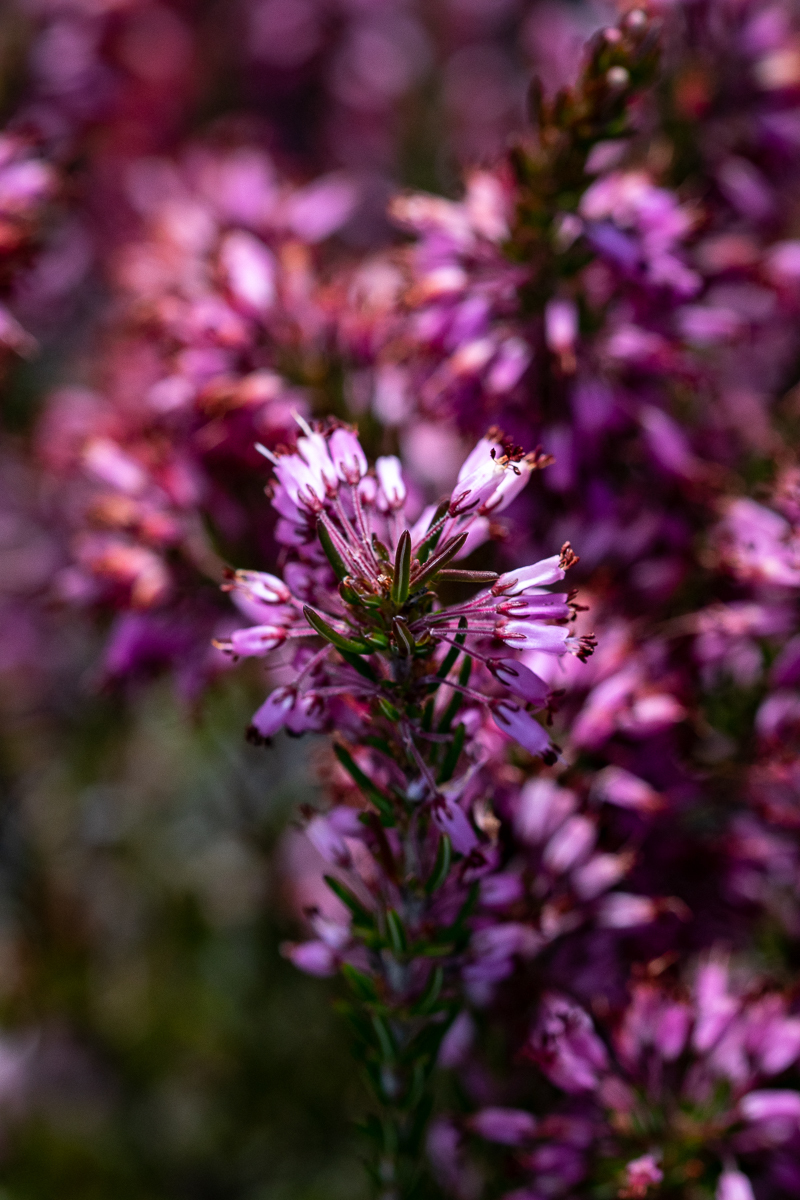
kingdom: Plantae
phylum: Tracheophyta
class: Magnoliopsida
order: Ericales
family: Ericaceae
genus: Erica
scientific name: Erica nudiflora
